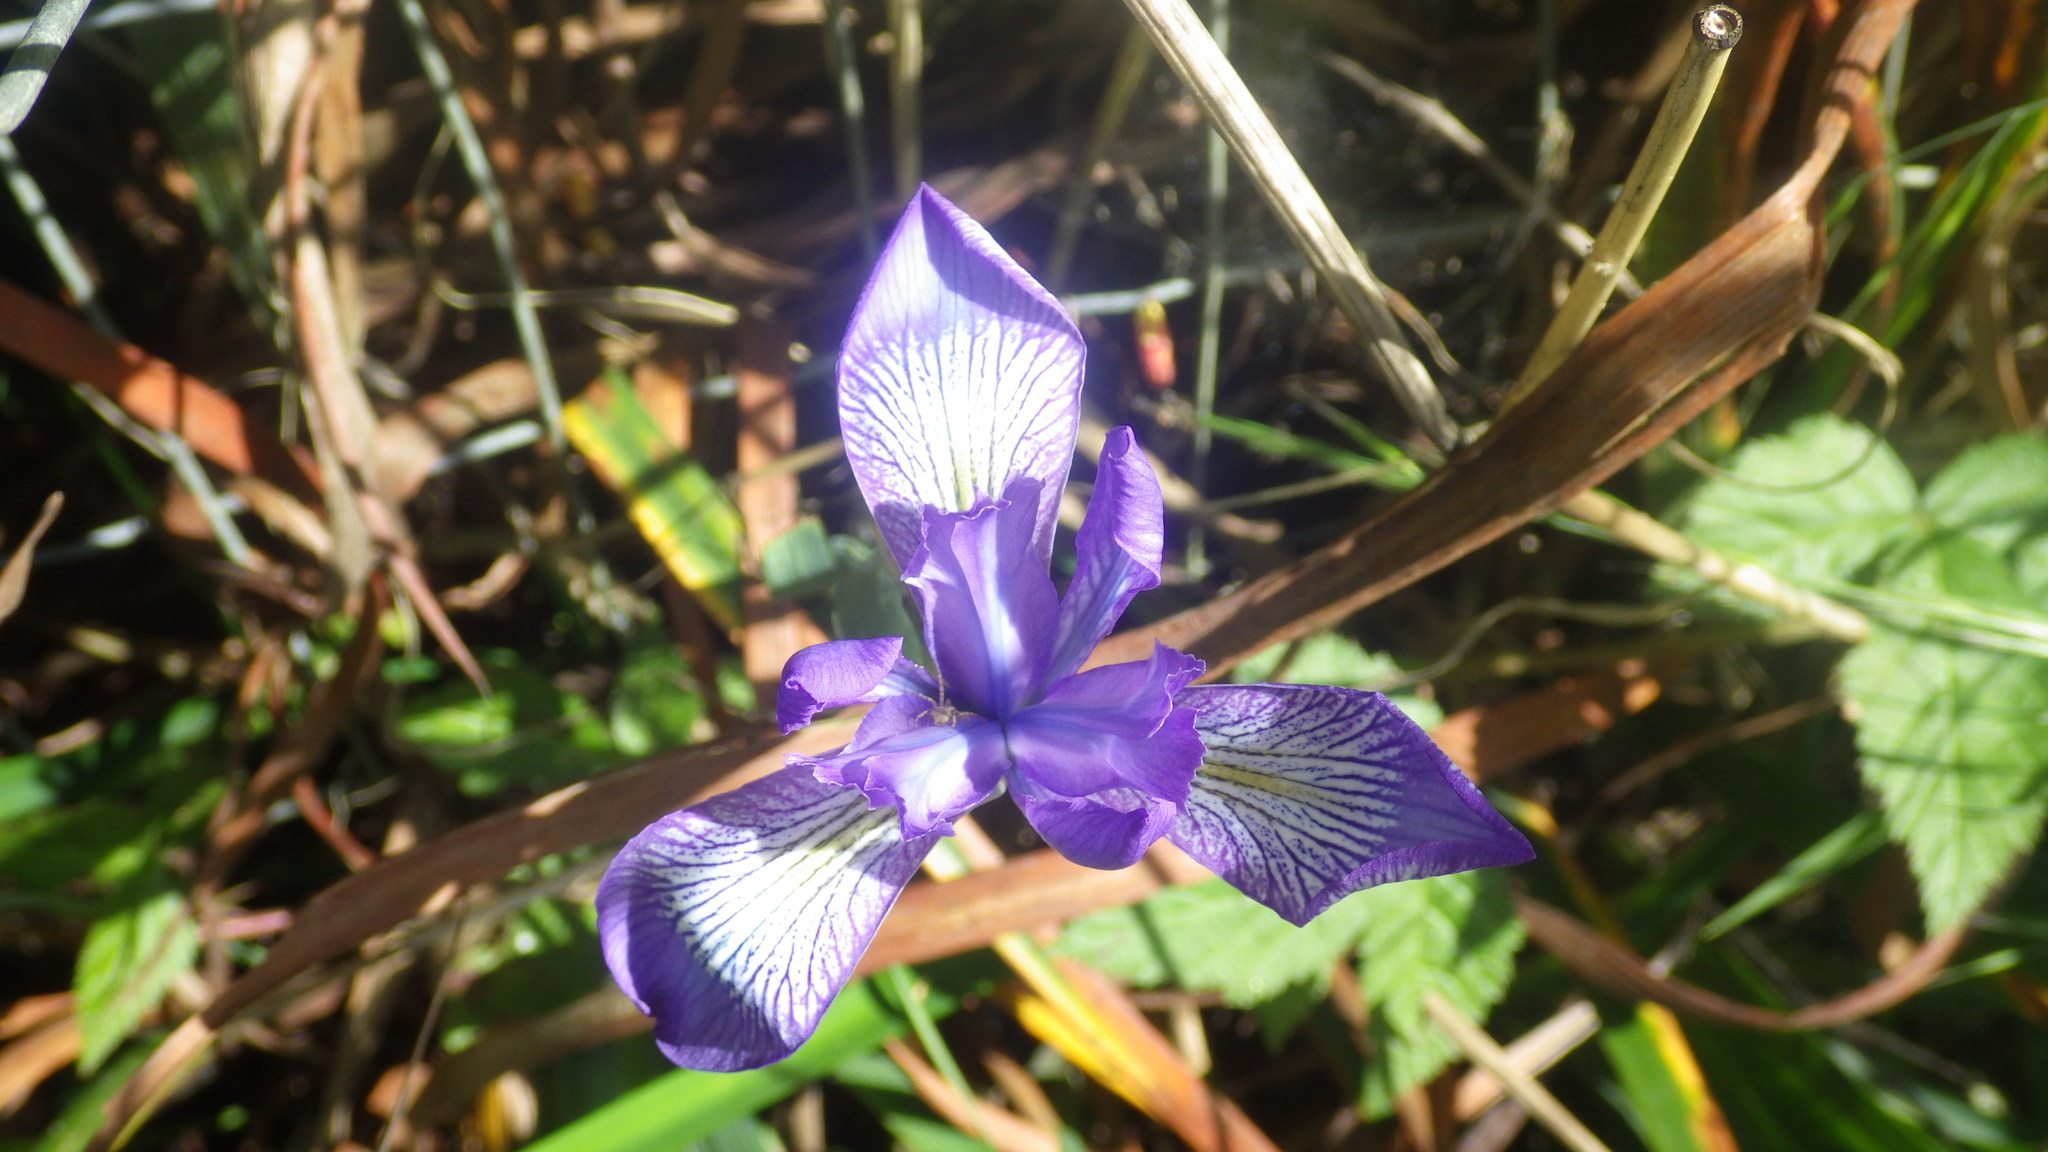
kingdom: Plantae
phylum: Tracheophyta
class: Liliopsida
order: Asparagales
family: Iridaceae
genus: Iris
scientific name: Iris douglasiana
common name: Marin iris
